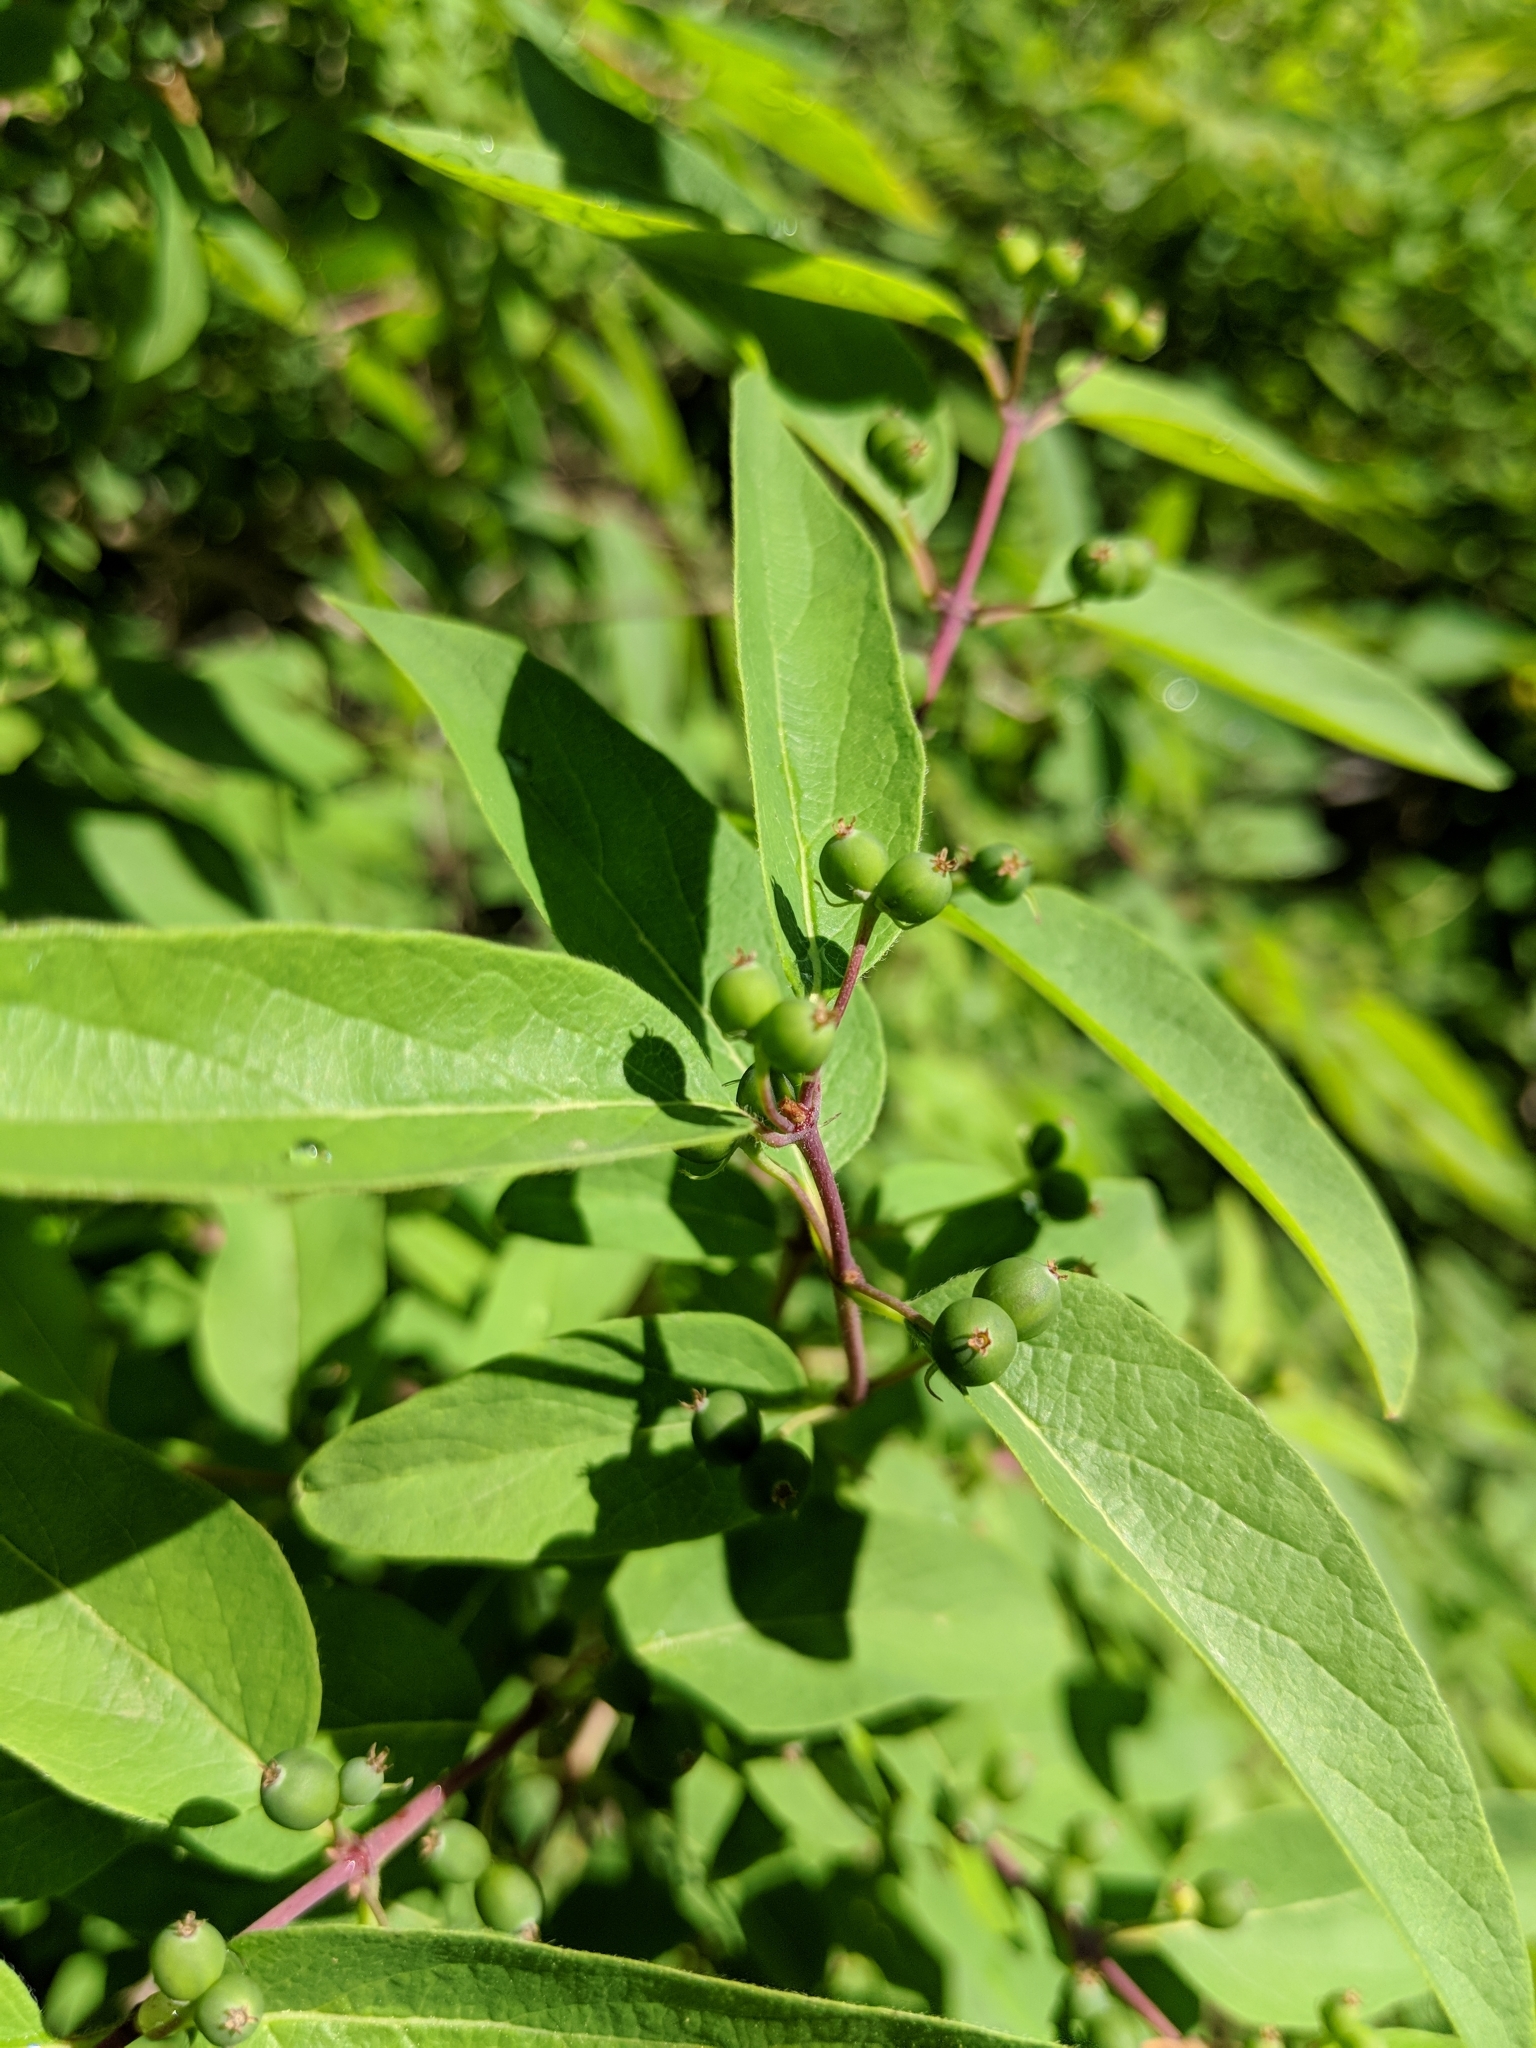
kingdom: Plantae
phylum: Tracheophyta
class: Magnoliopsida
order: Dipsacales
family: Caprifoliaceae
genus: Lonicera
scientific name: Lonicera morrowii
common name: Morrow's honeysuckle
